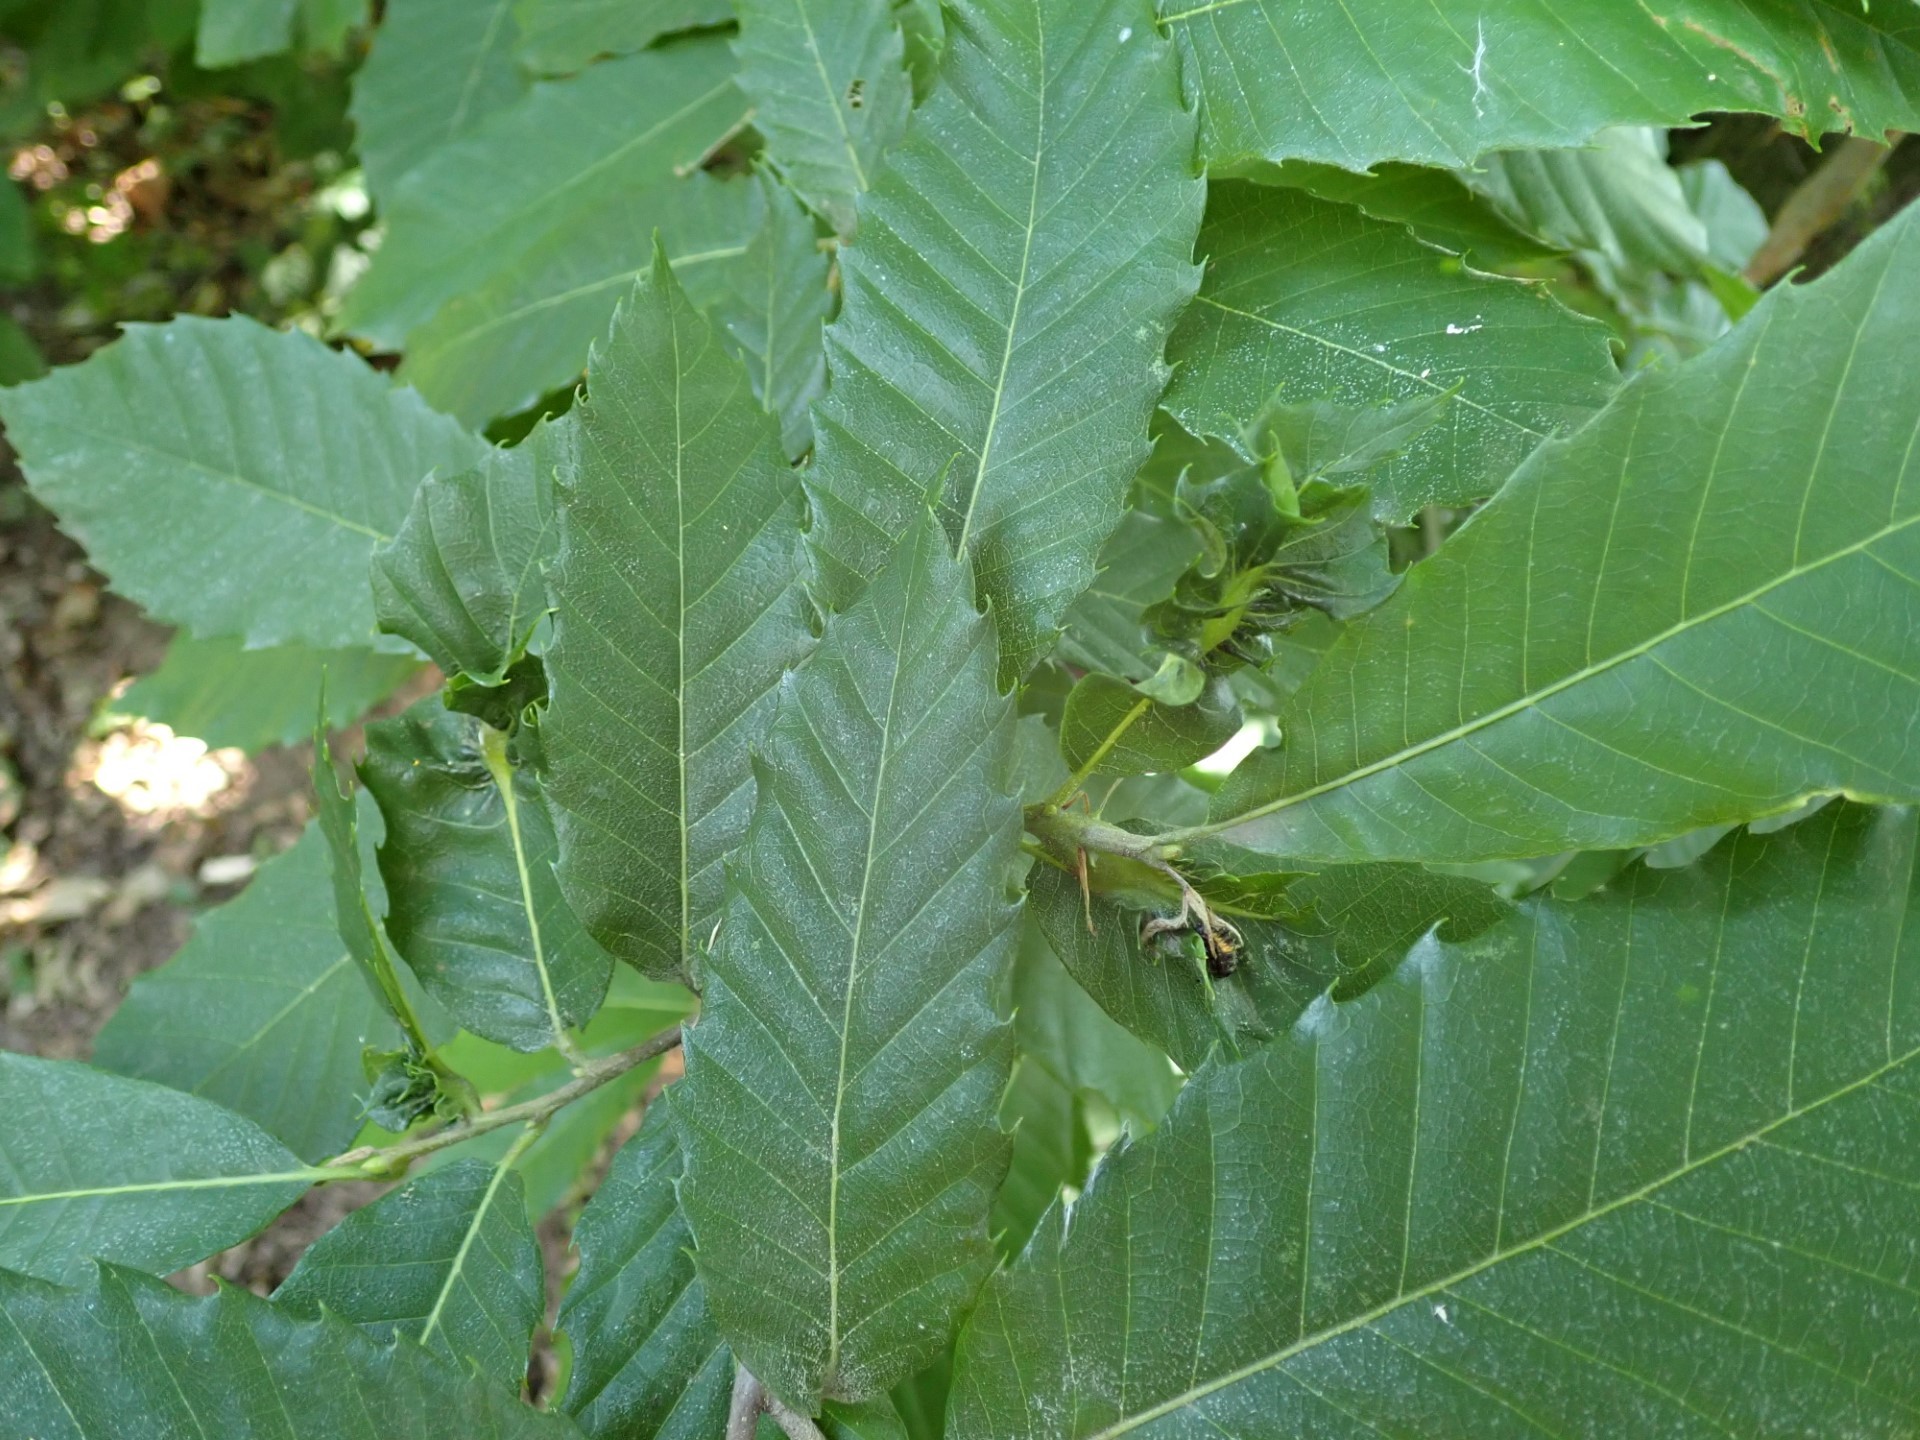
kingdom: Animalia
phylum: Arthropoda
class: Insecta
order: Hymenoptera
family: Cynipidae
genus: Dryocosmus
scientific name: Dryocosmus kuriphilus
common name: Asian chestnut gall wasp
